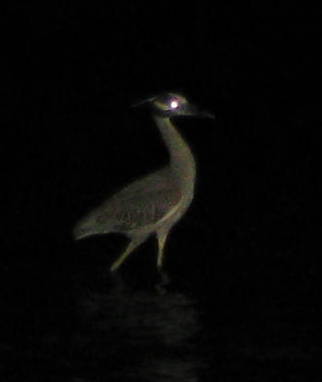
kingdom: Animalia
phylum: Chordata
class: Aves
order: Pelecaniformes
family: Ardeidae
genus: Nyctanassa
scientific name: Nyctanassa violacea
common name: Yellow-crowned night heron
